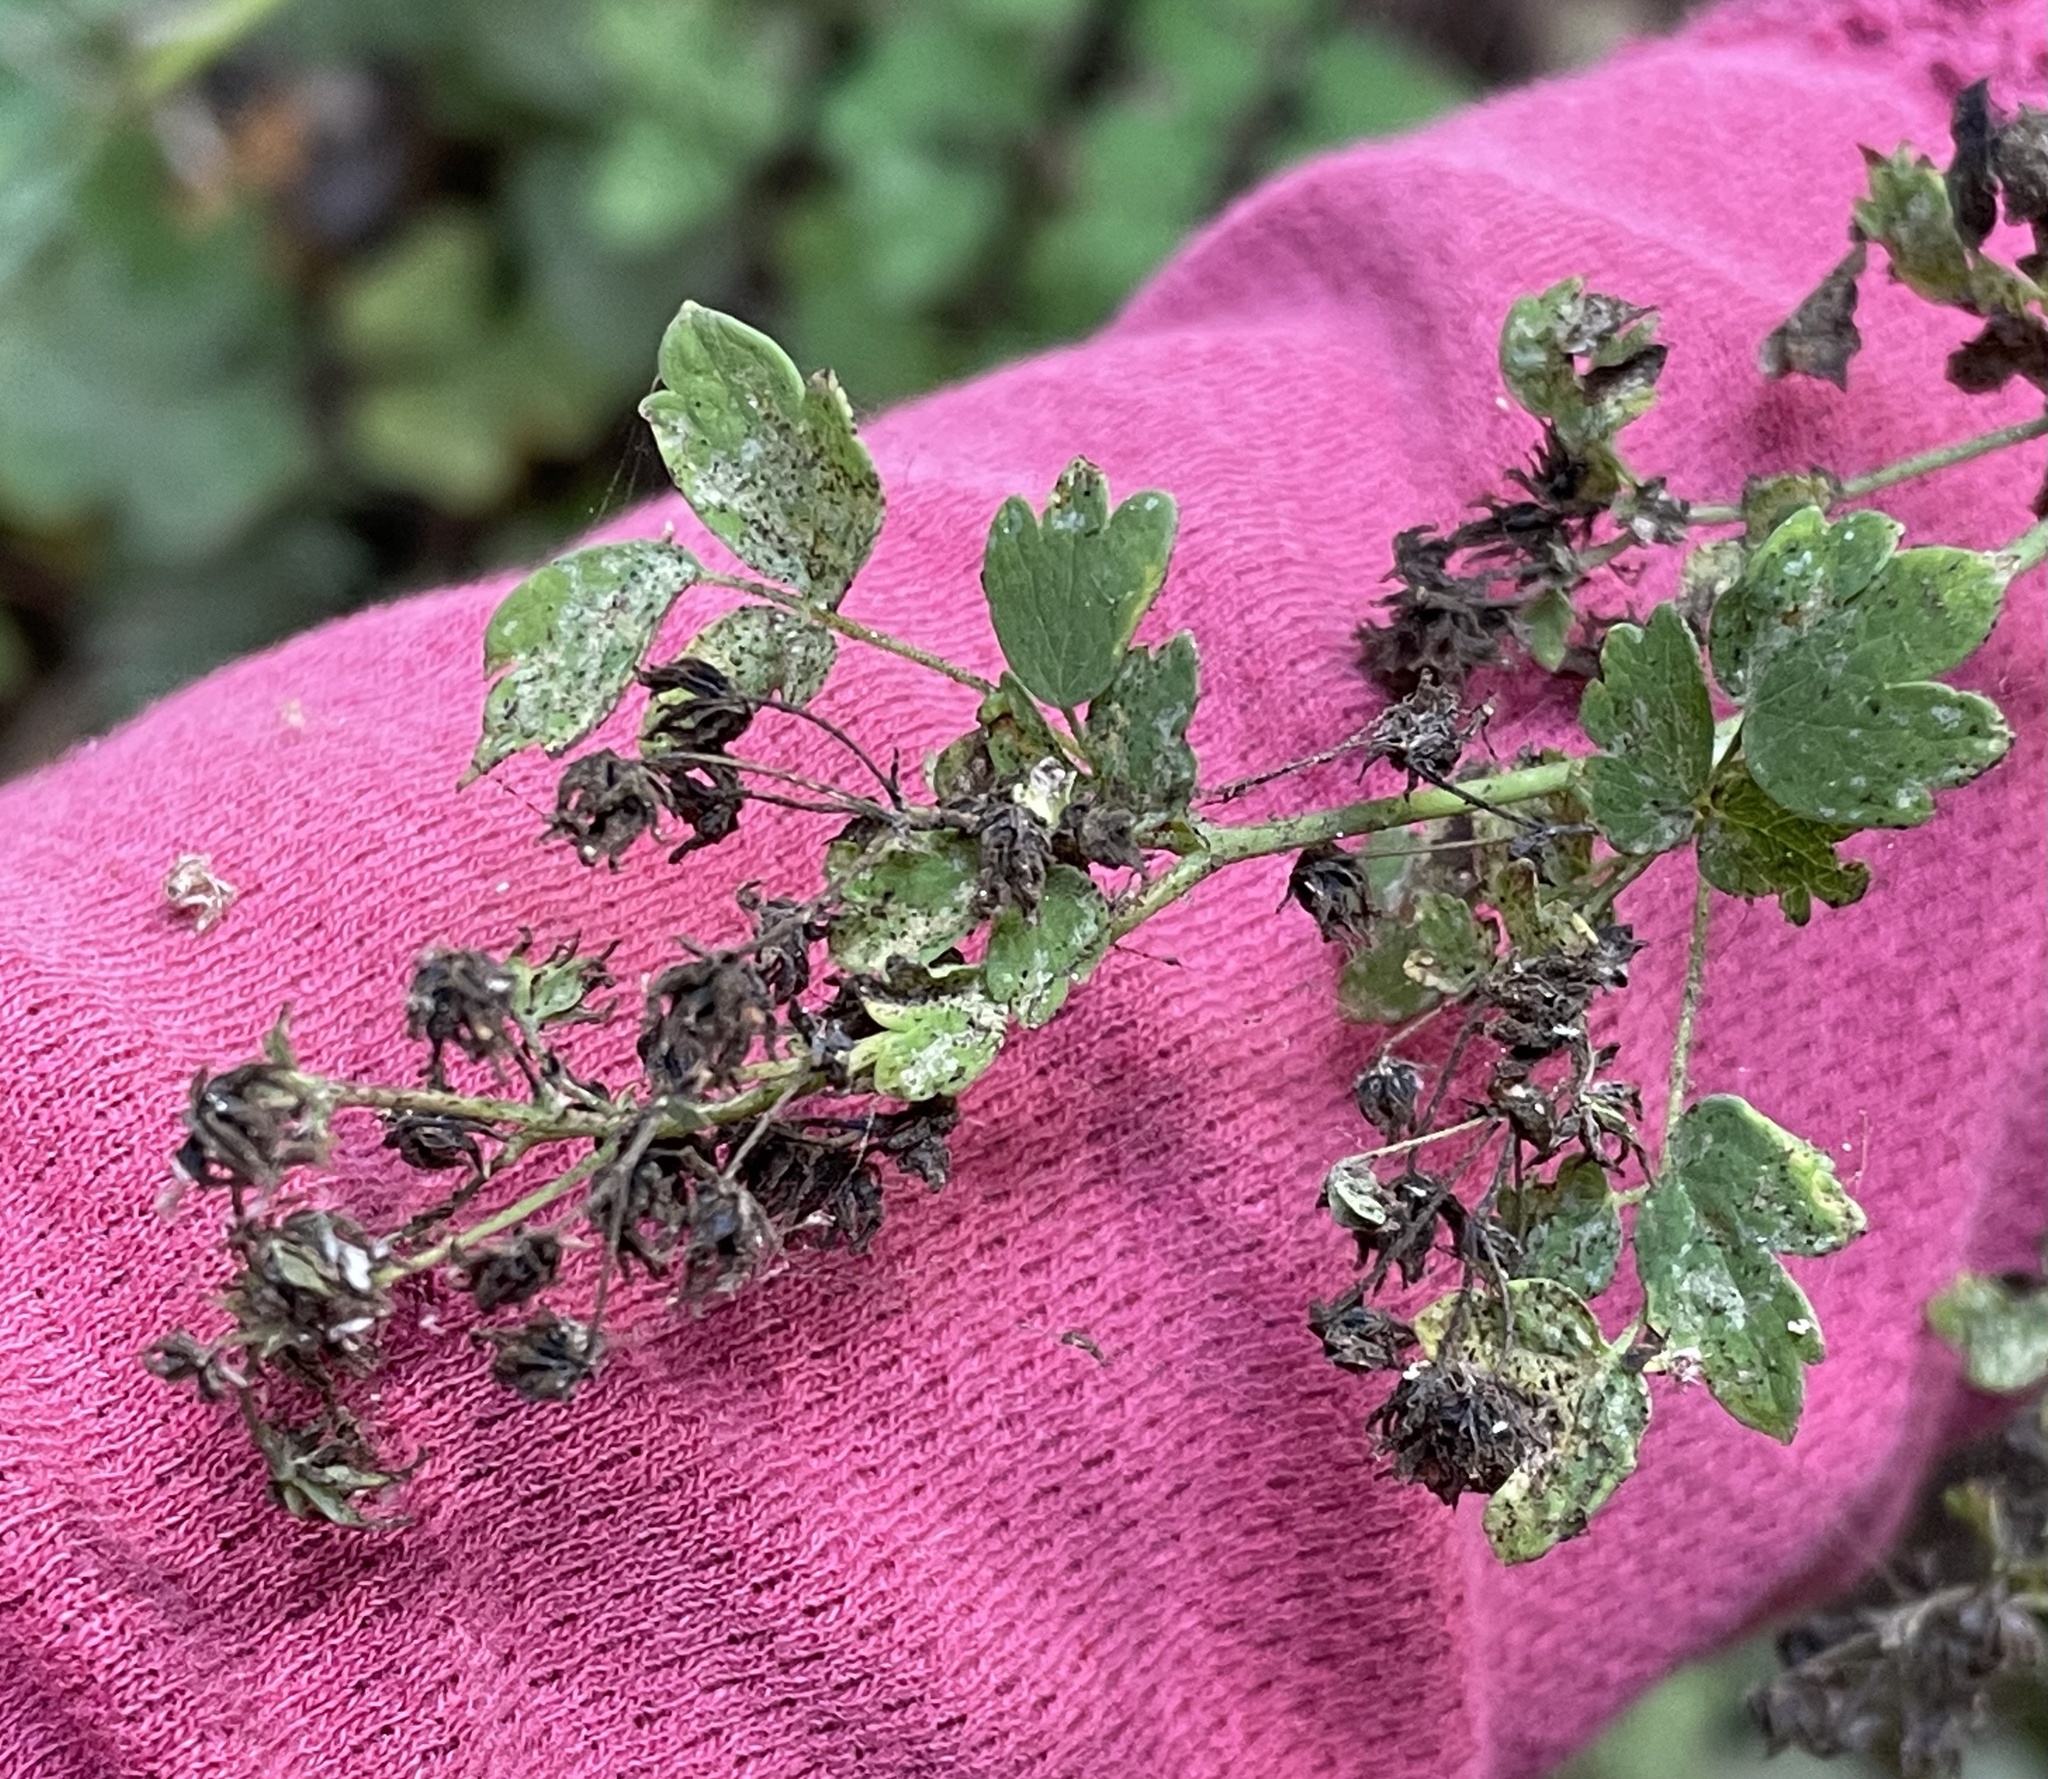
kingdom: Plantae
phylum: Tracheophyta
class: Magnoliopsida
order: Ranunculales
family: Ranunculaceae
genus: Thalictrum
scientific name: Thalictrum fendleri
